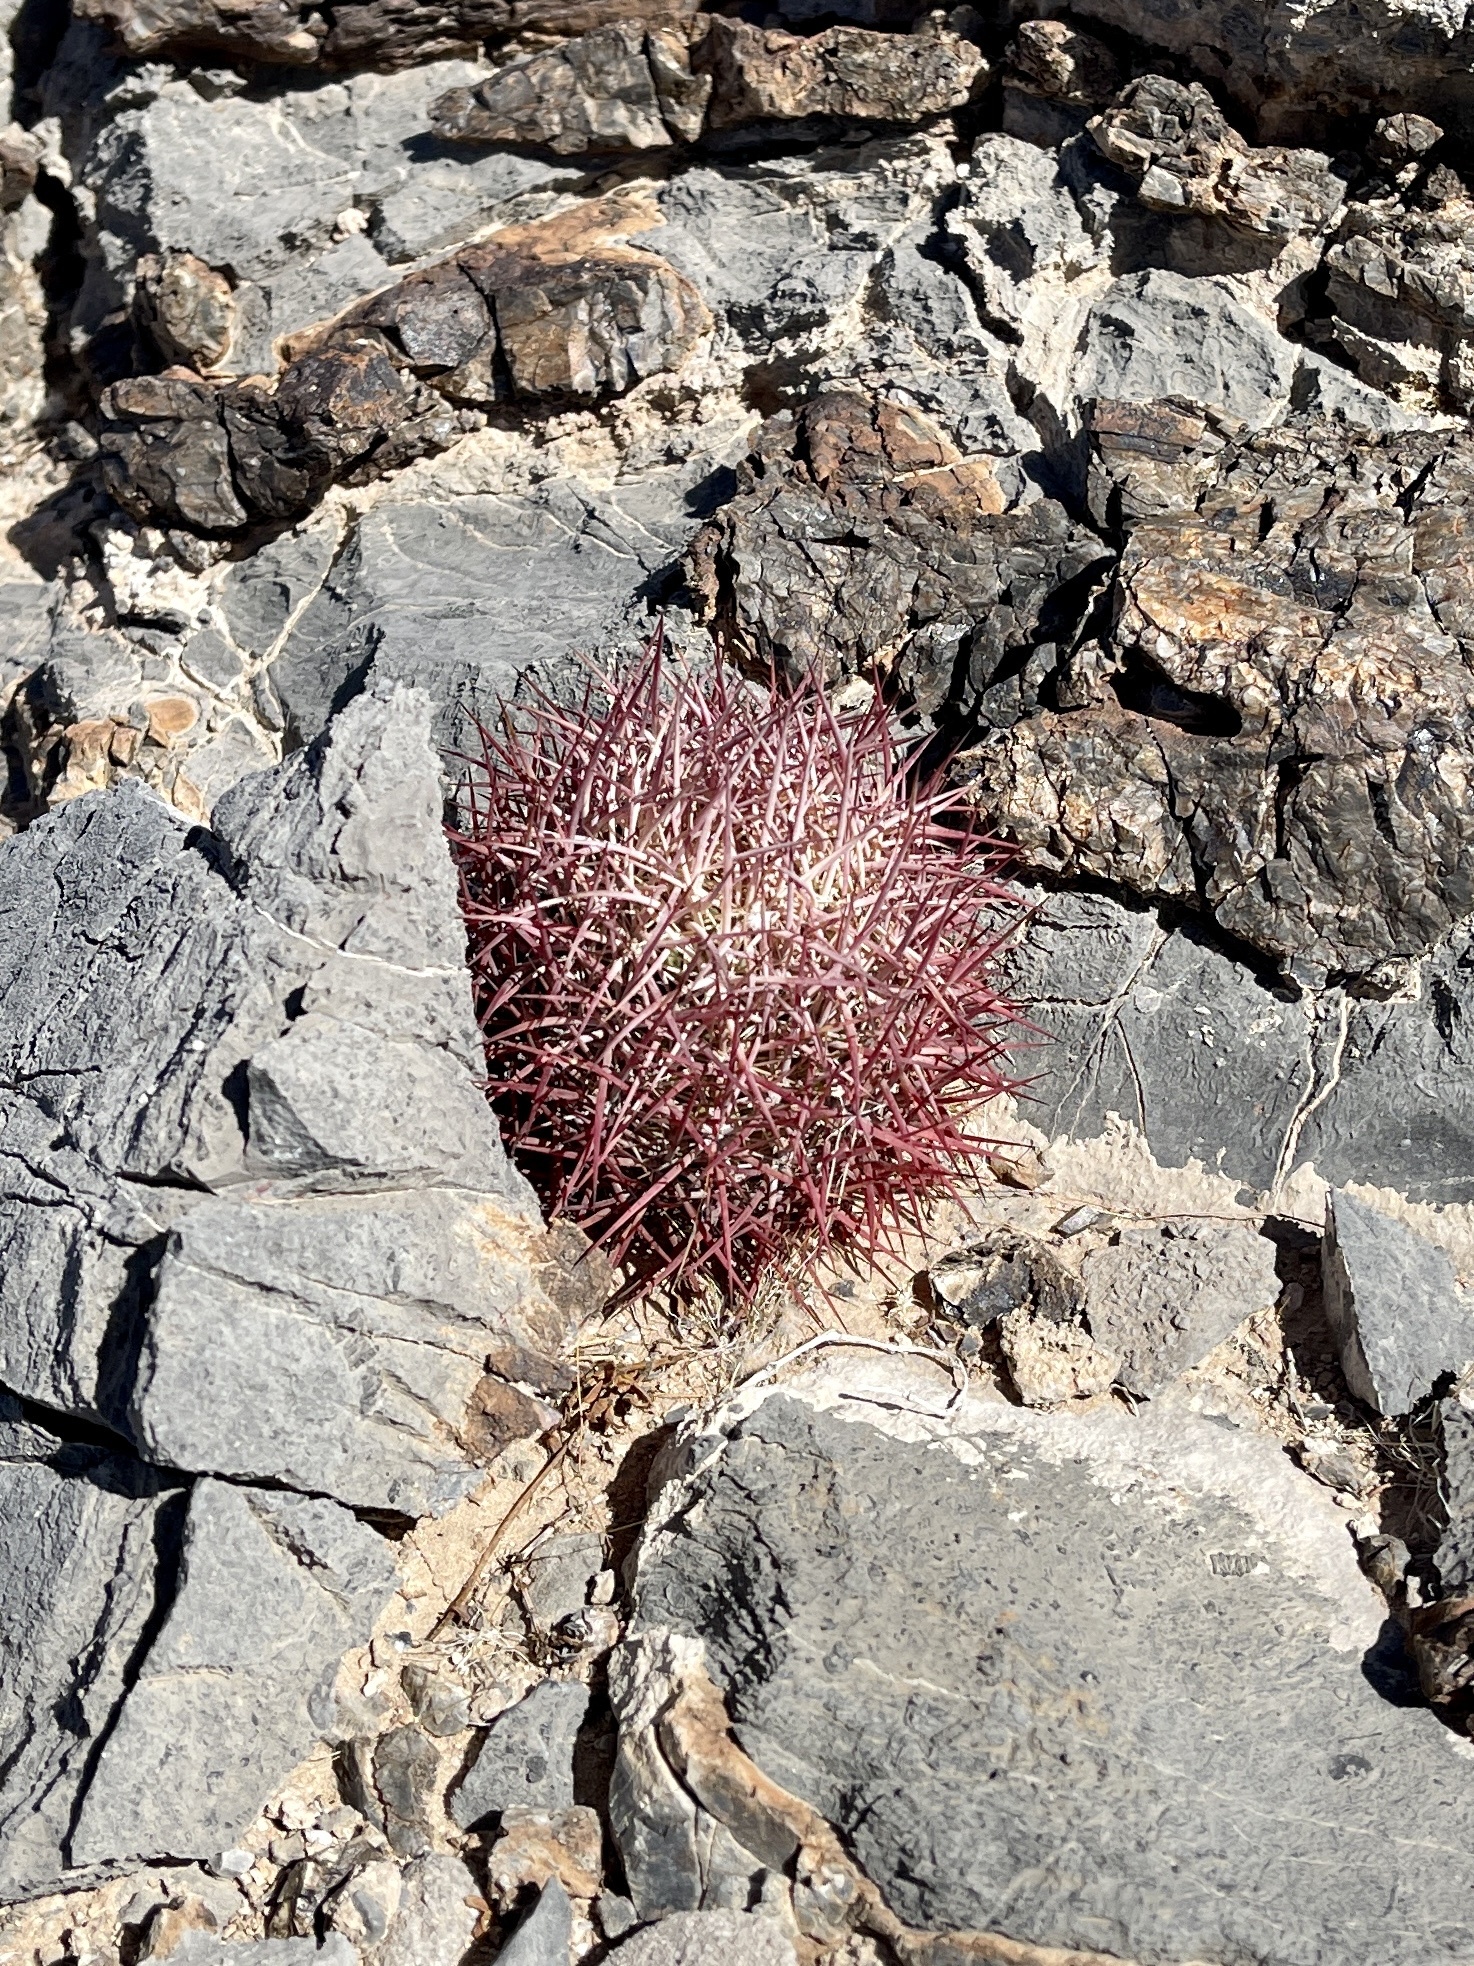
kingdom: Plantae
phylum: Tracheophyta
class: Magnoliopsida
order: Caryophyllales
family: Cactaceae
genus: Ferocactus
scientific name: Ferocactus cylindraceus
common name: California barrel cactus
